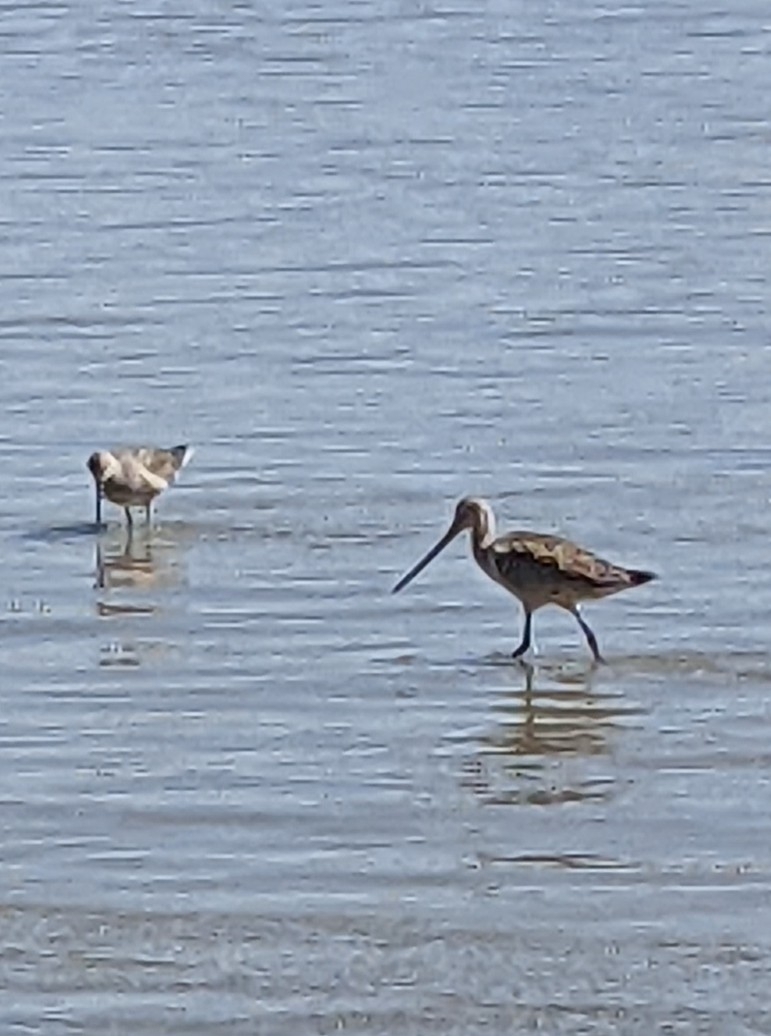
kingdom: Animalia
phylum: Chordata
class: Aves
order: Charadriiformes
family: Scolopacidae
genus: Limosa
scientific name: Limosa fedoa
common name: Marbled godwit
